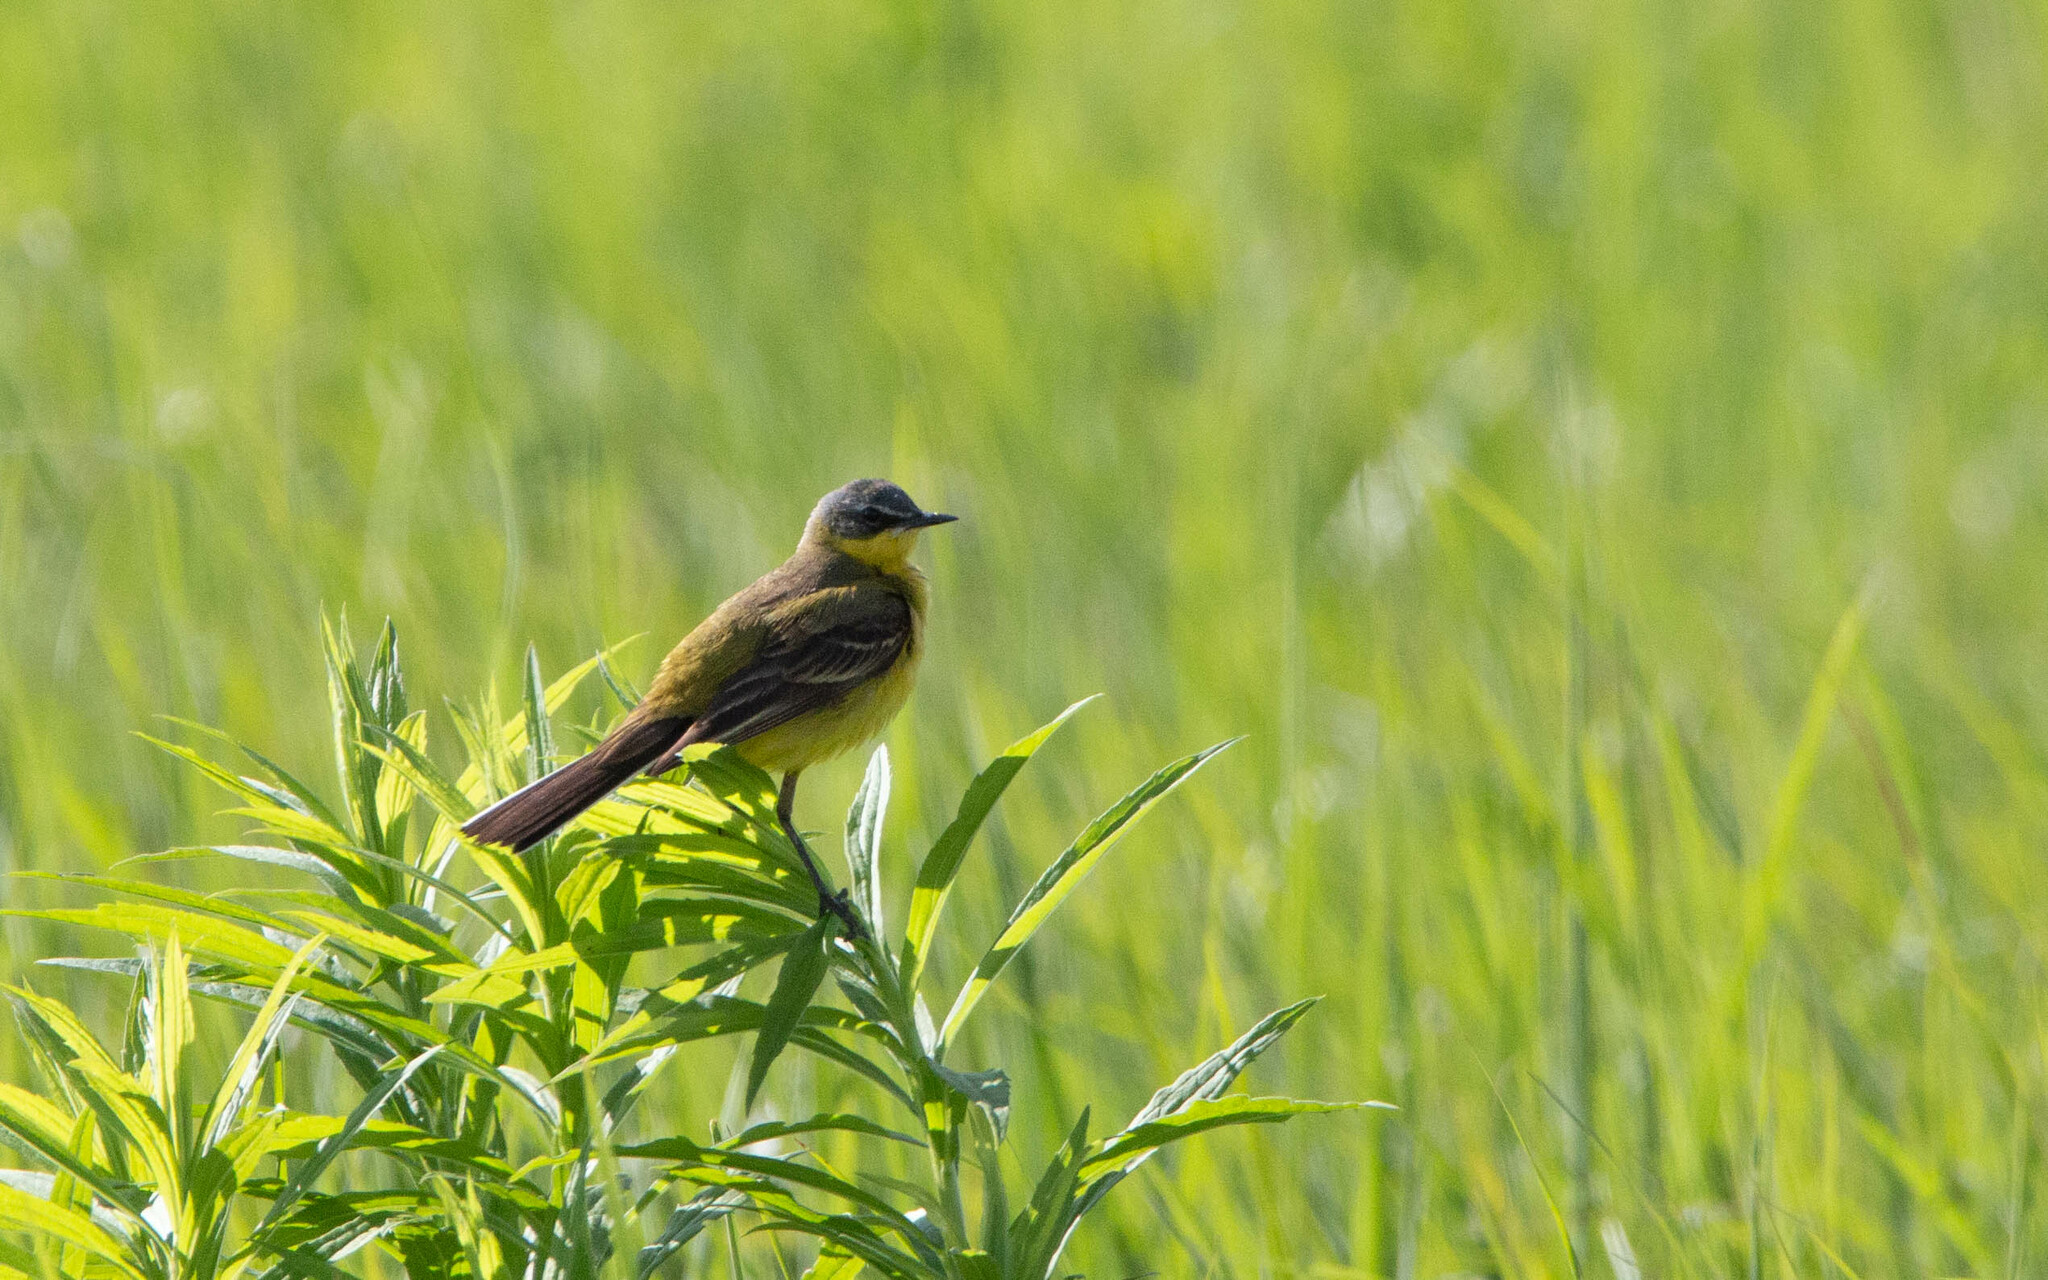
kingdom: Animalia
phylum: Chordata
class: Aves
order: Passeriformes
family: Motacillidae
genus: Motacilla
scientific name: Motacilla flava
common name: Western yellow wagtail
